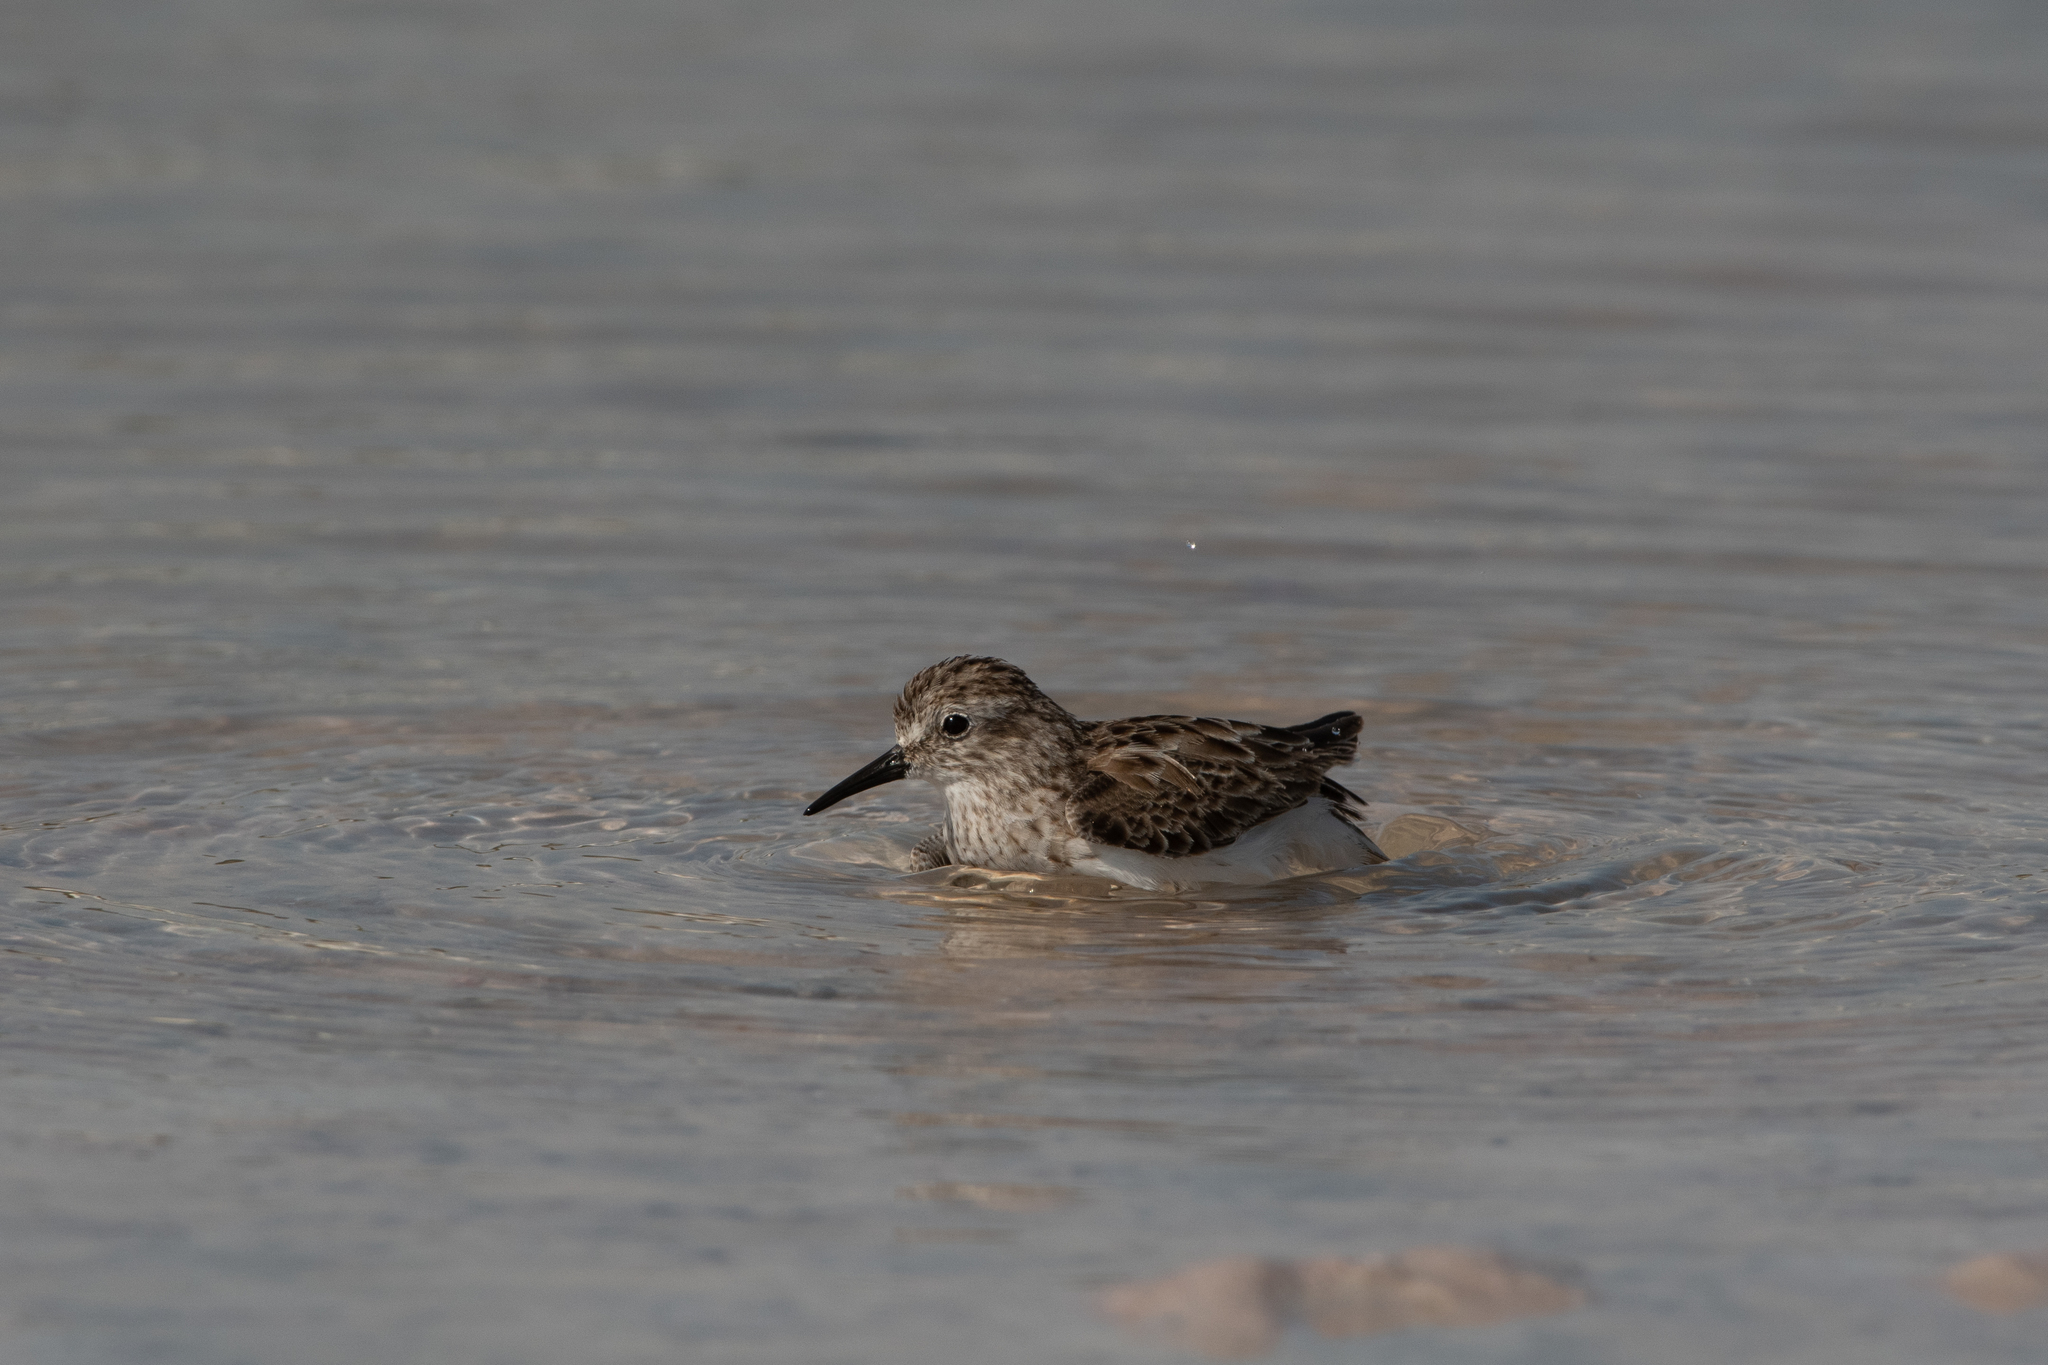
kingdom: Animalia
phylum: Chordata
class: Aves
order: Charadriiformes
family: Scolopacidae
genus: Calidris
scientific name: Calidris minutilla
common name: Least sandpiper
